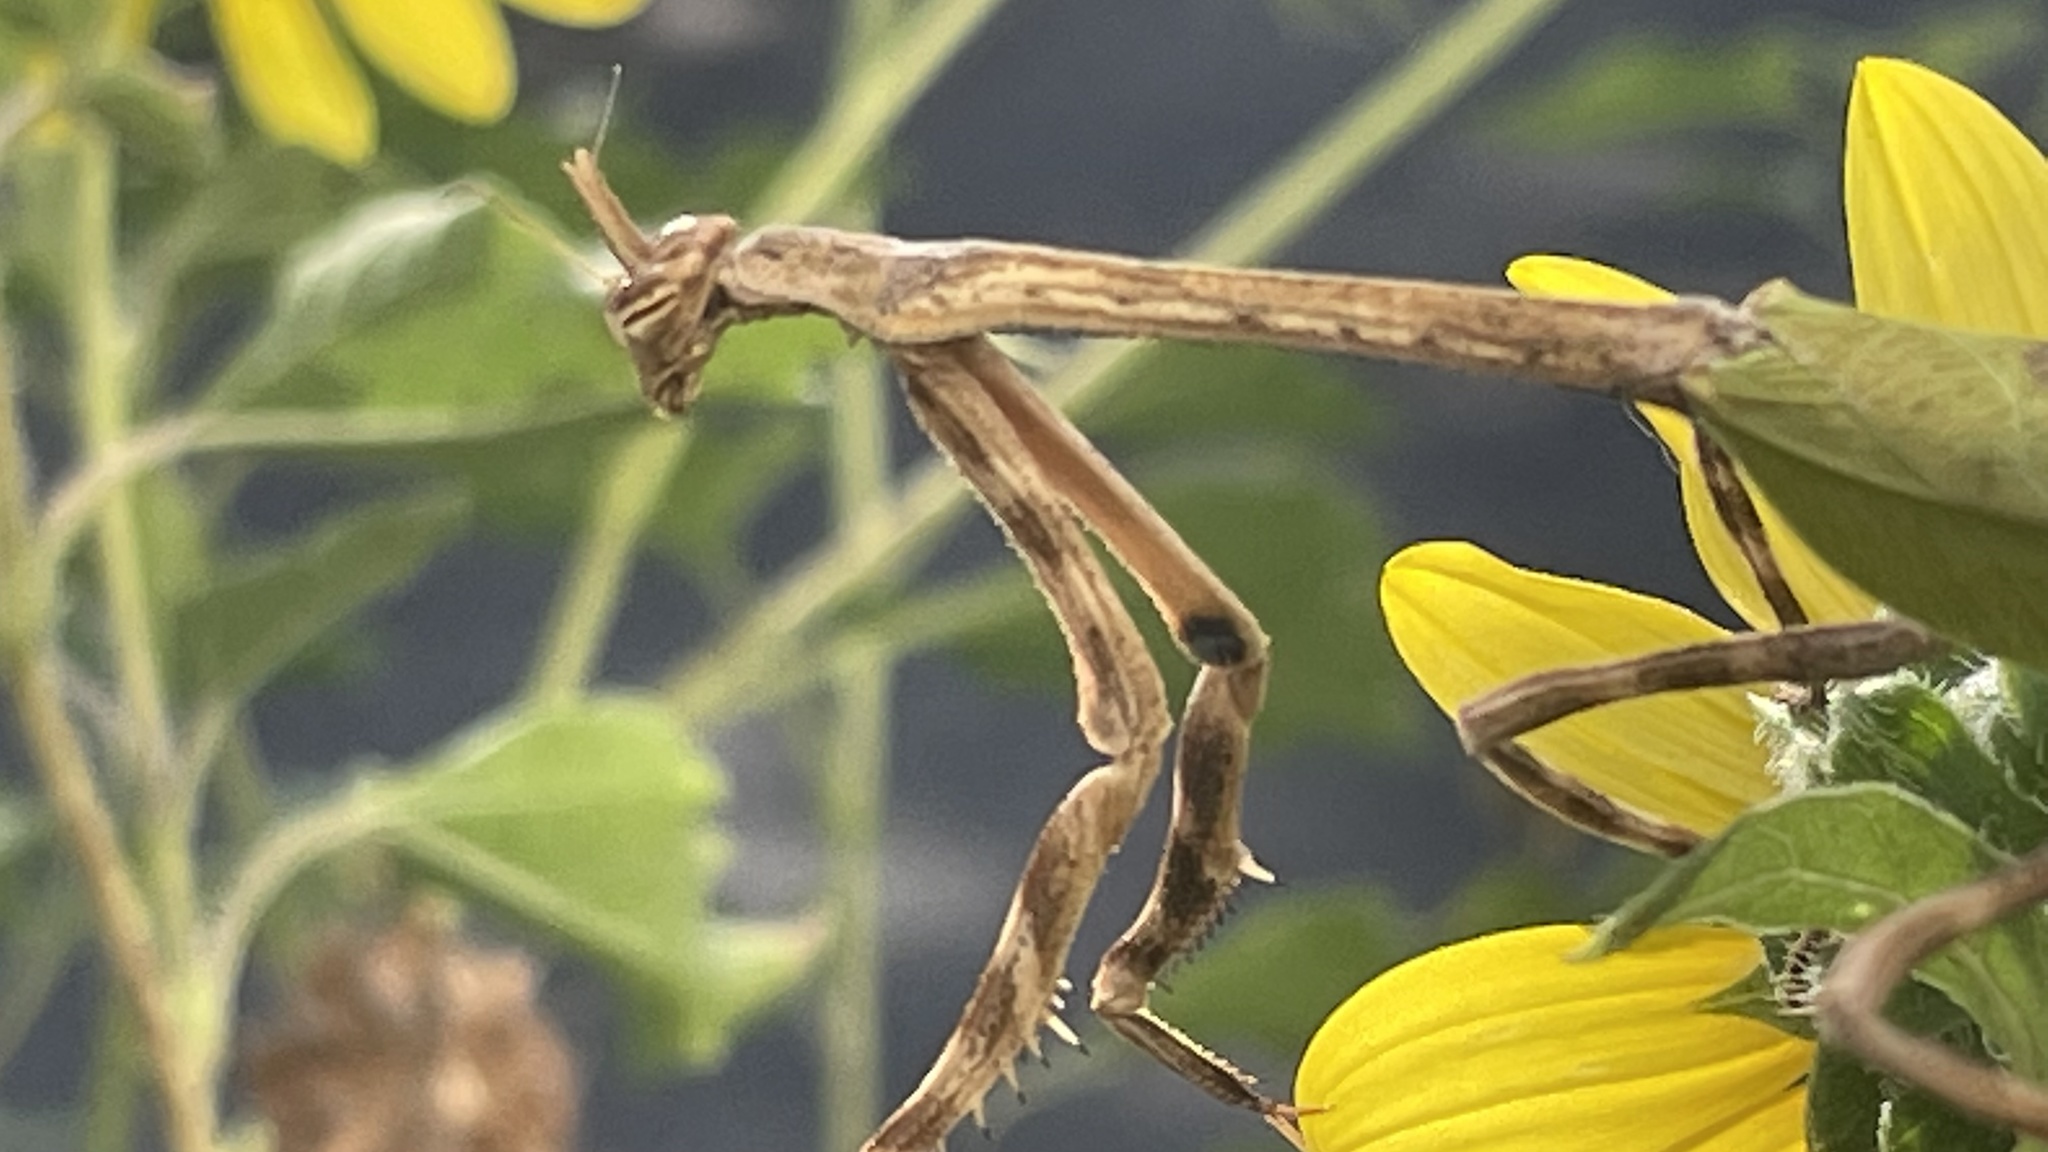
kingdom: Animalia
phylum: Arthropoda
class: Insecta
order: Mantodea
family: Mantidae
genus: Pseudovates
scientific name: Pseudovates chlorophaea
